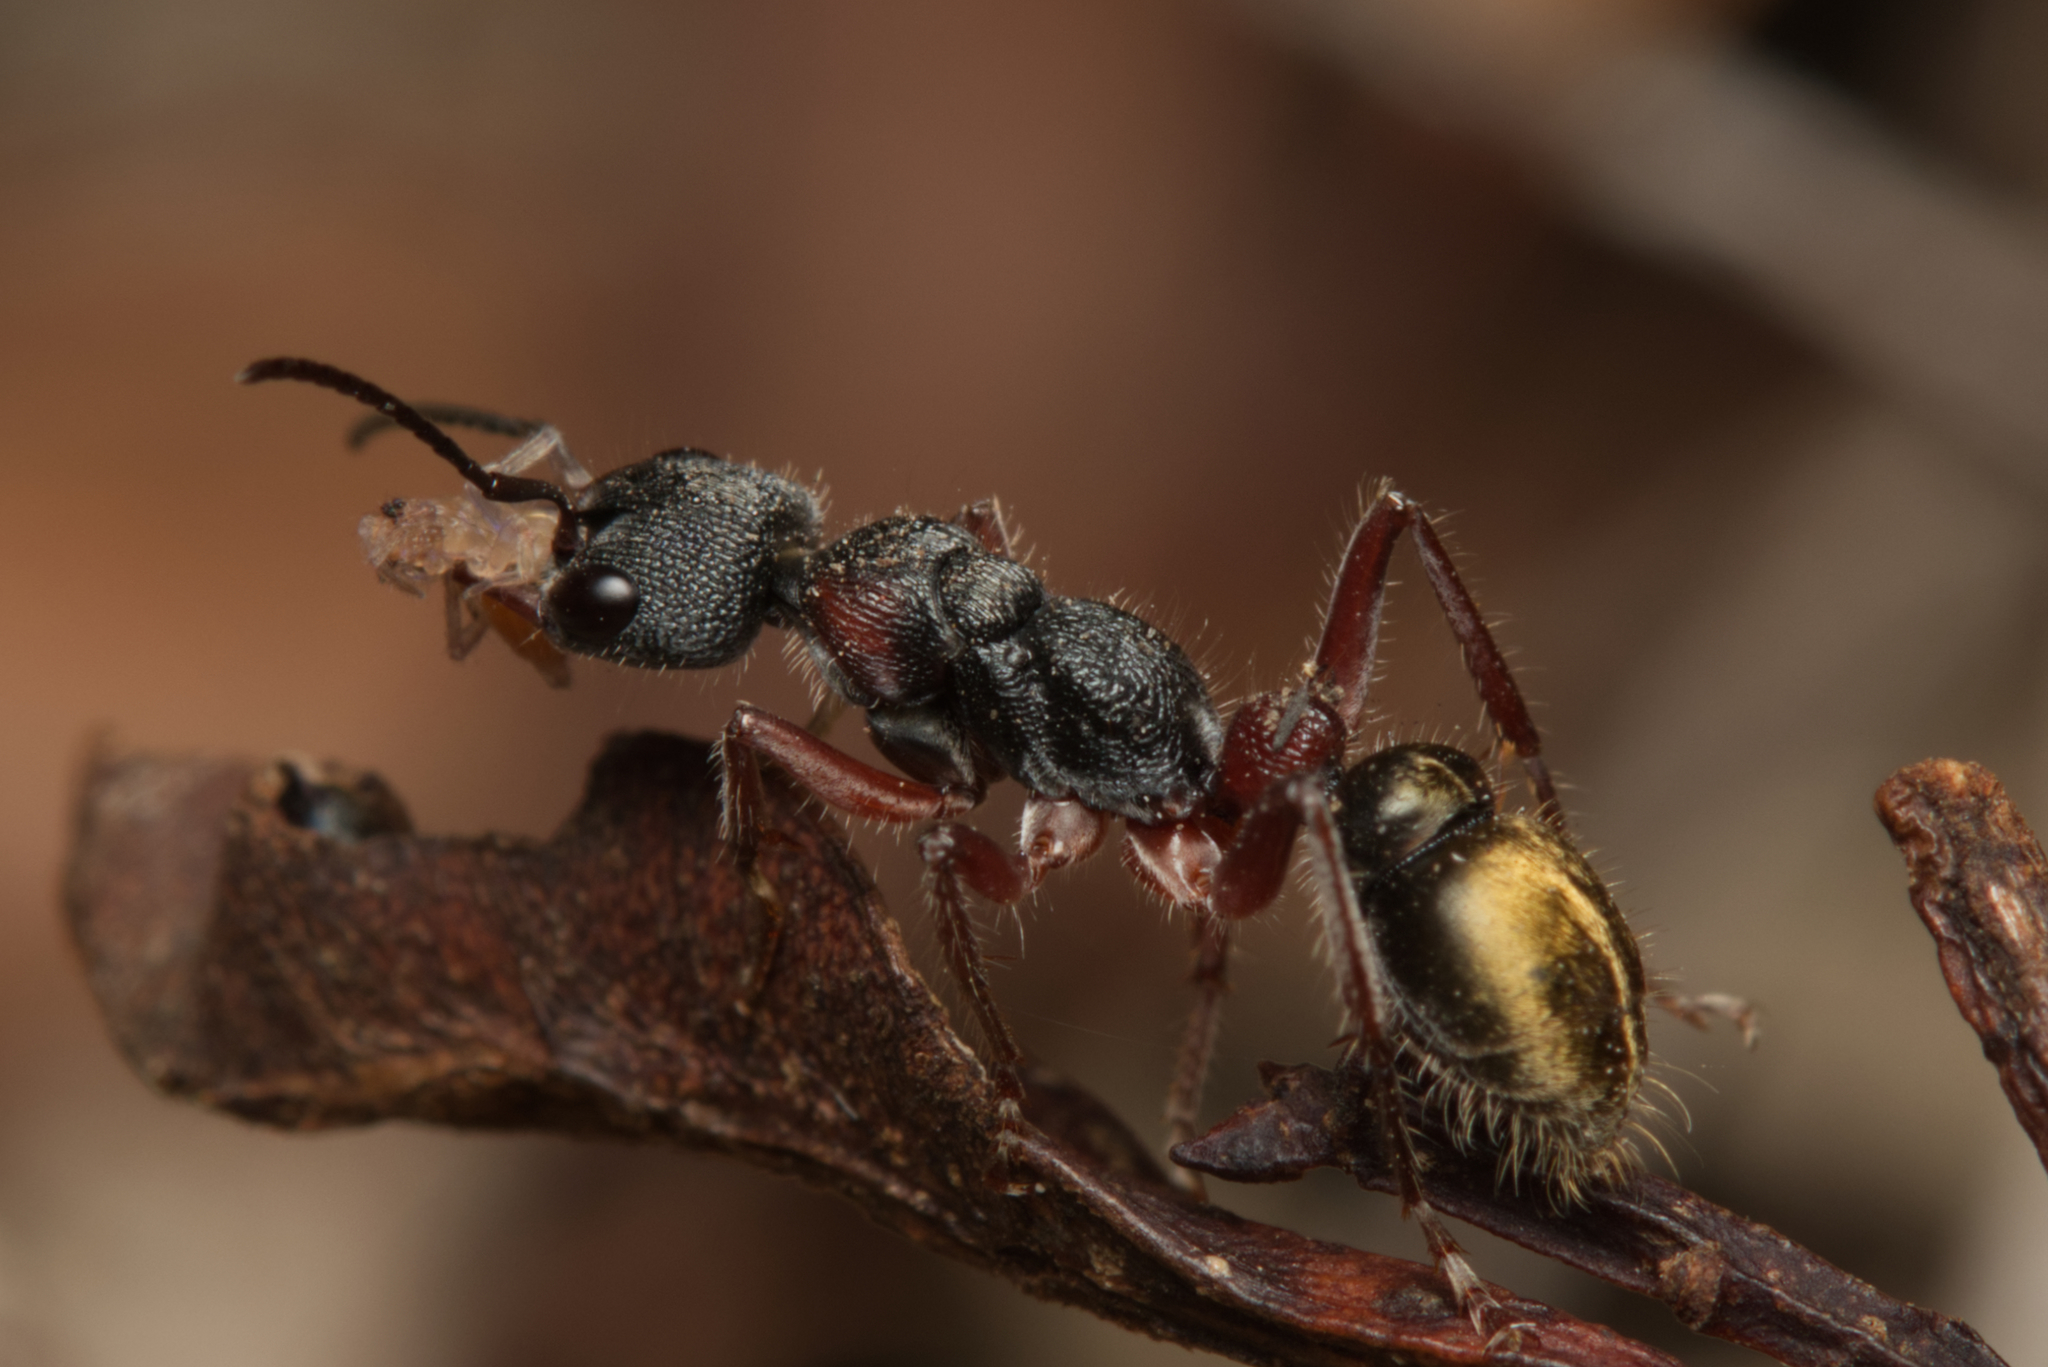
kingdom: Animalia
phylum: Arthropoda
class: Insecta
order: Hymenoptera
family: Formicidae
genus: Myrmecia
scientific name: Myrmecia chrysogaster
